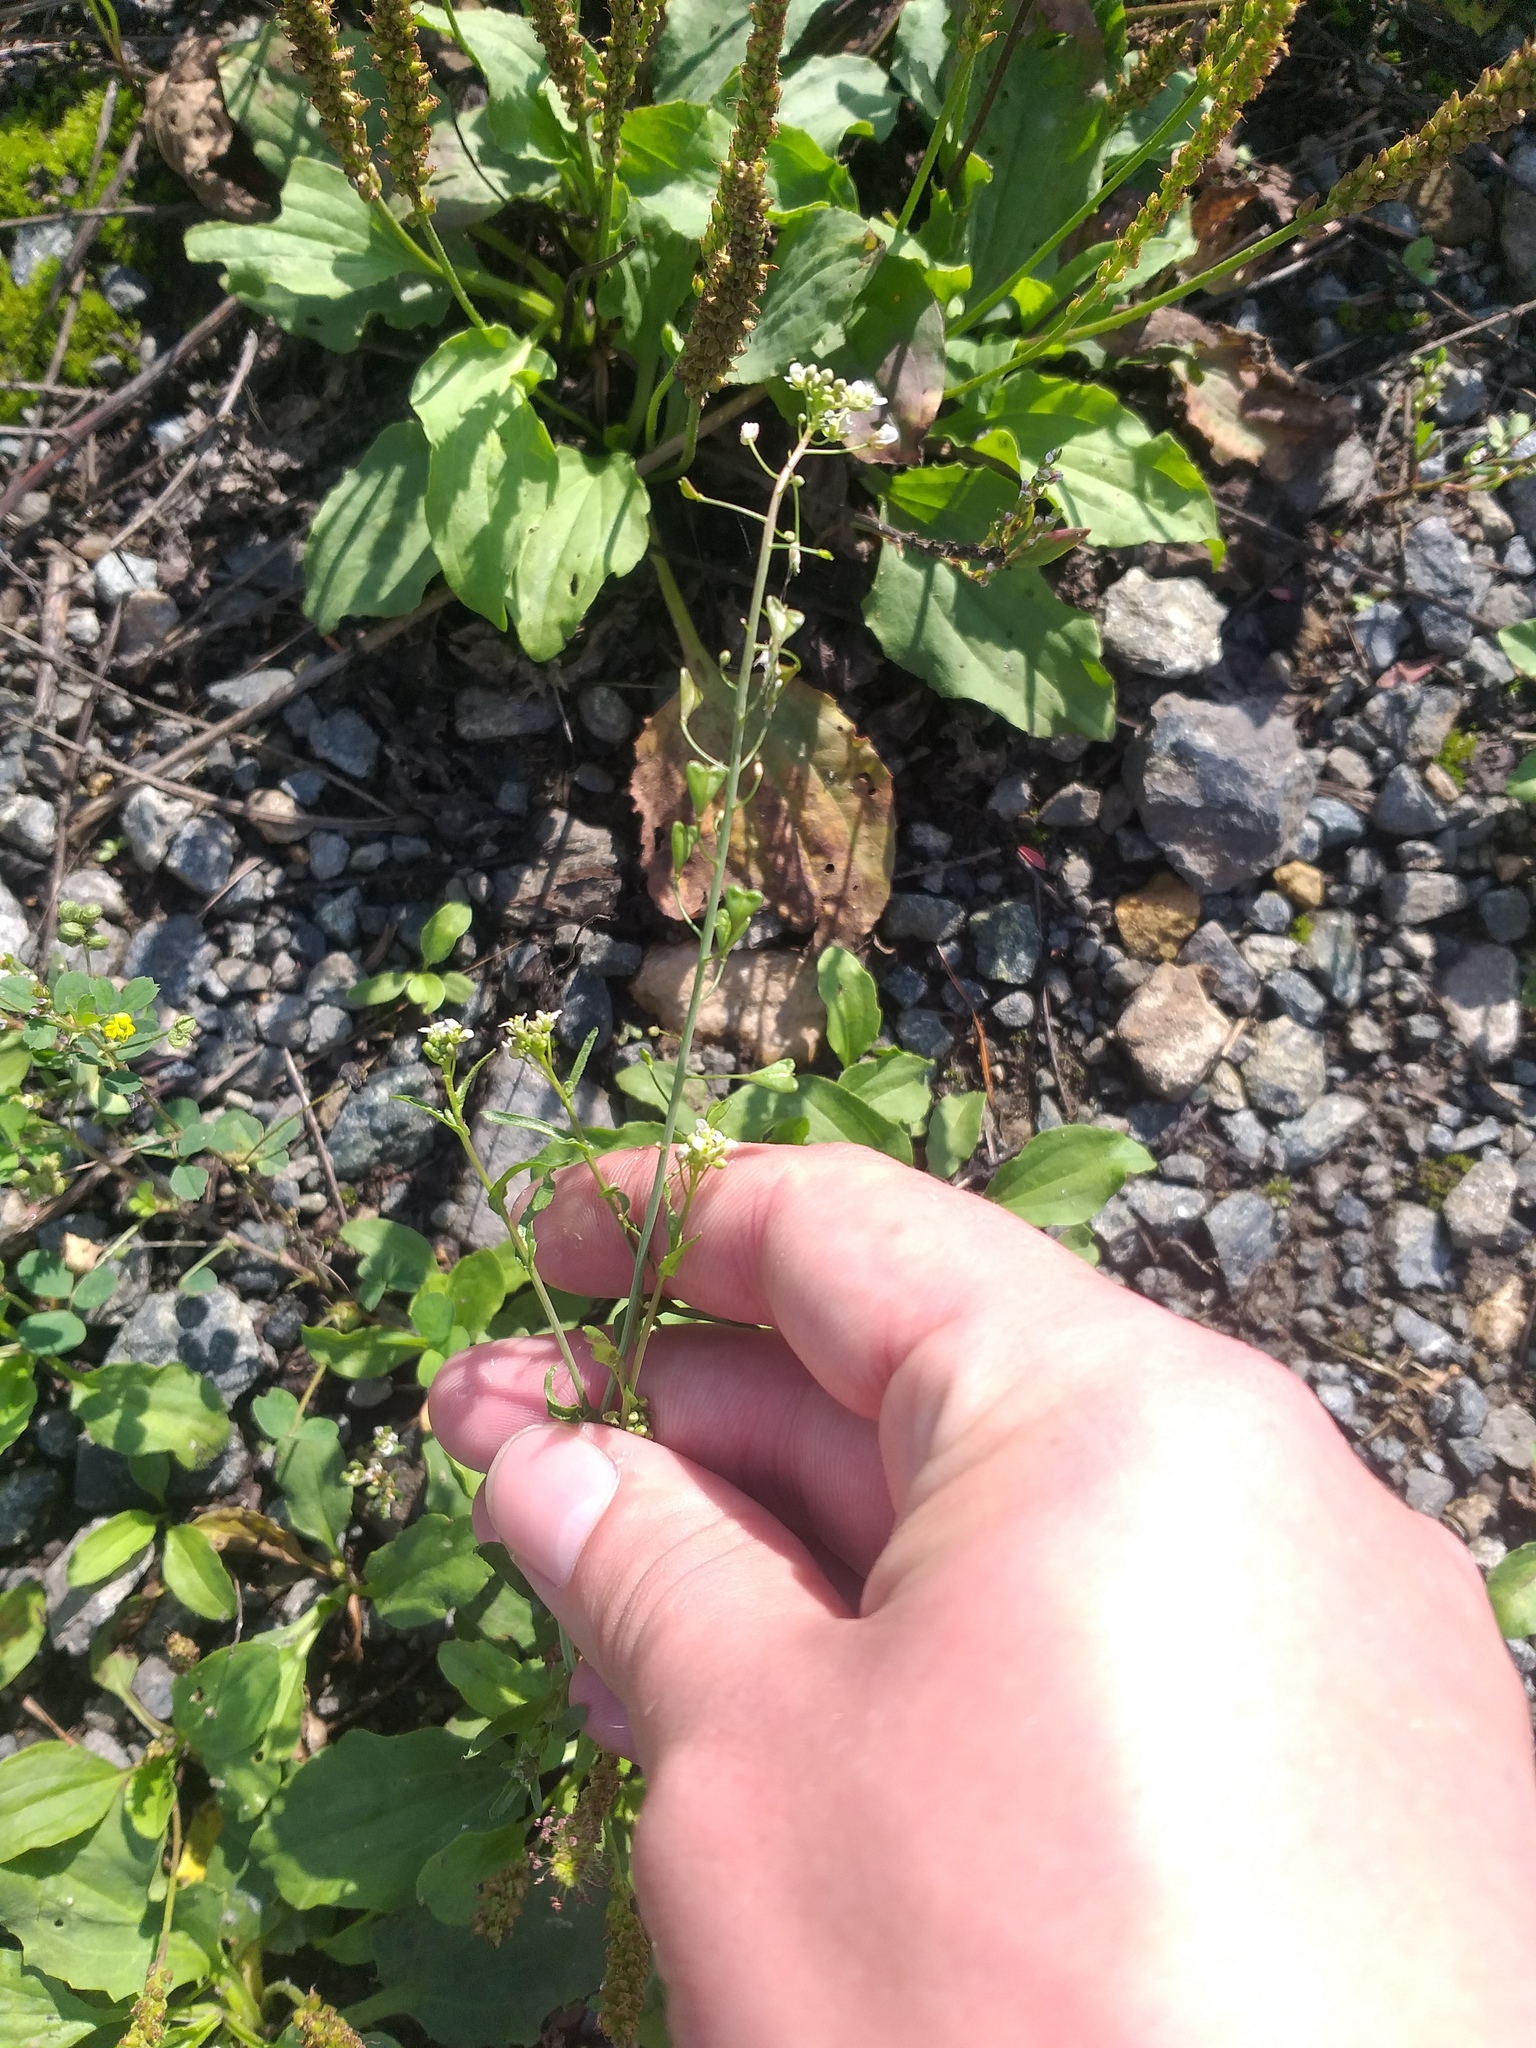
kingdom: Plantae
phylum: Tracheophyta
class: Magnoliopsida
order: Brassicales
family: Brassicaceae
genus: Capsella
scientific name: Capsella bursa-pastoris
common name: Shepherd's purse
